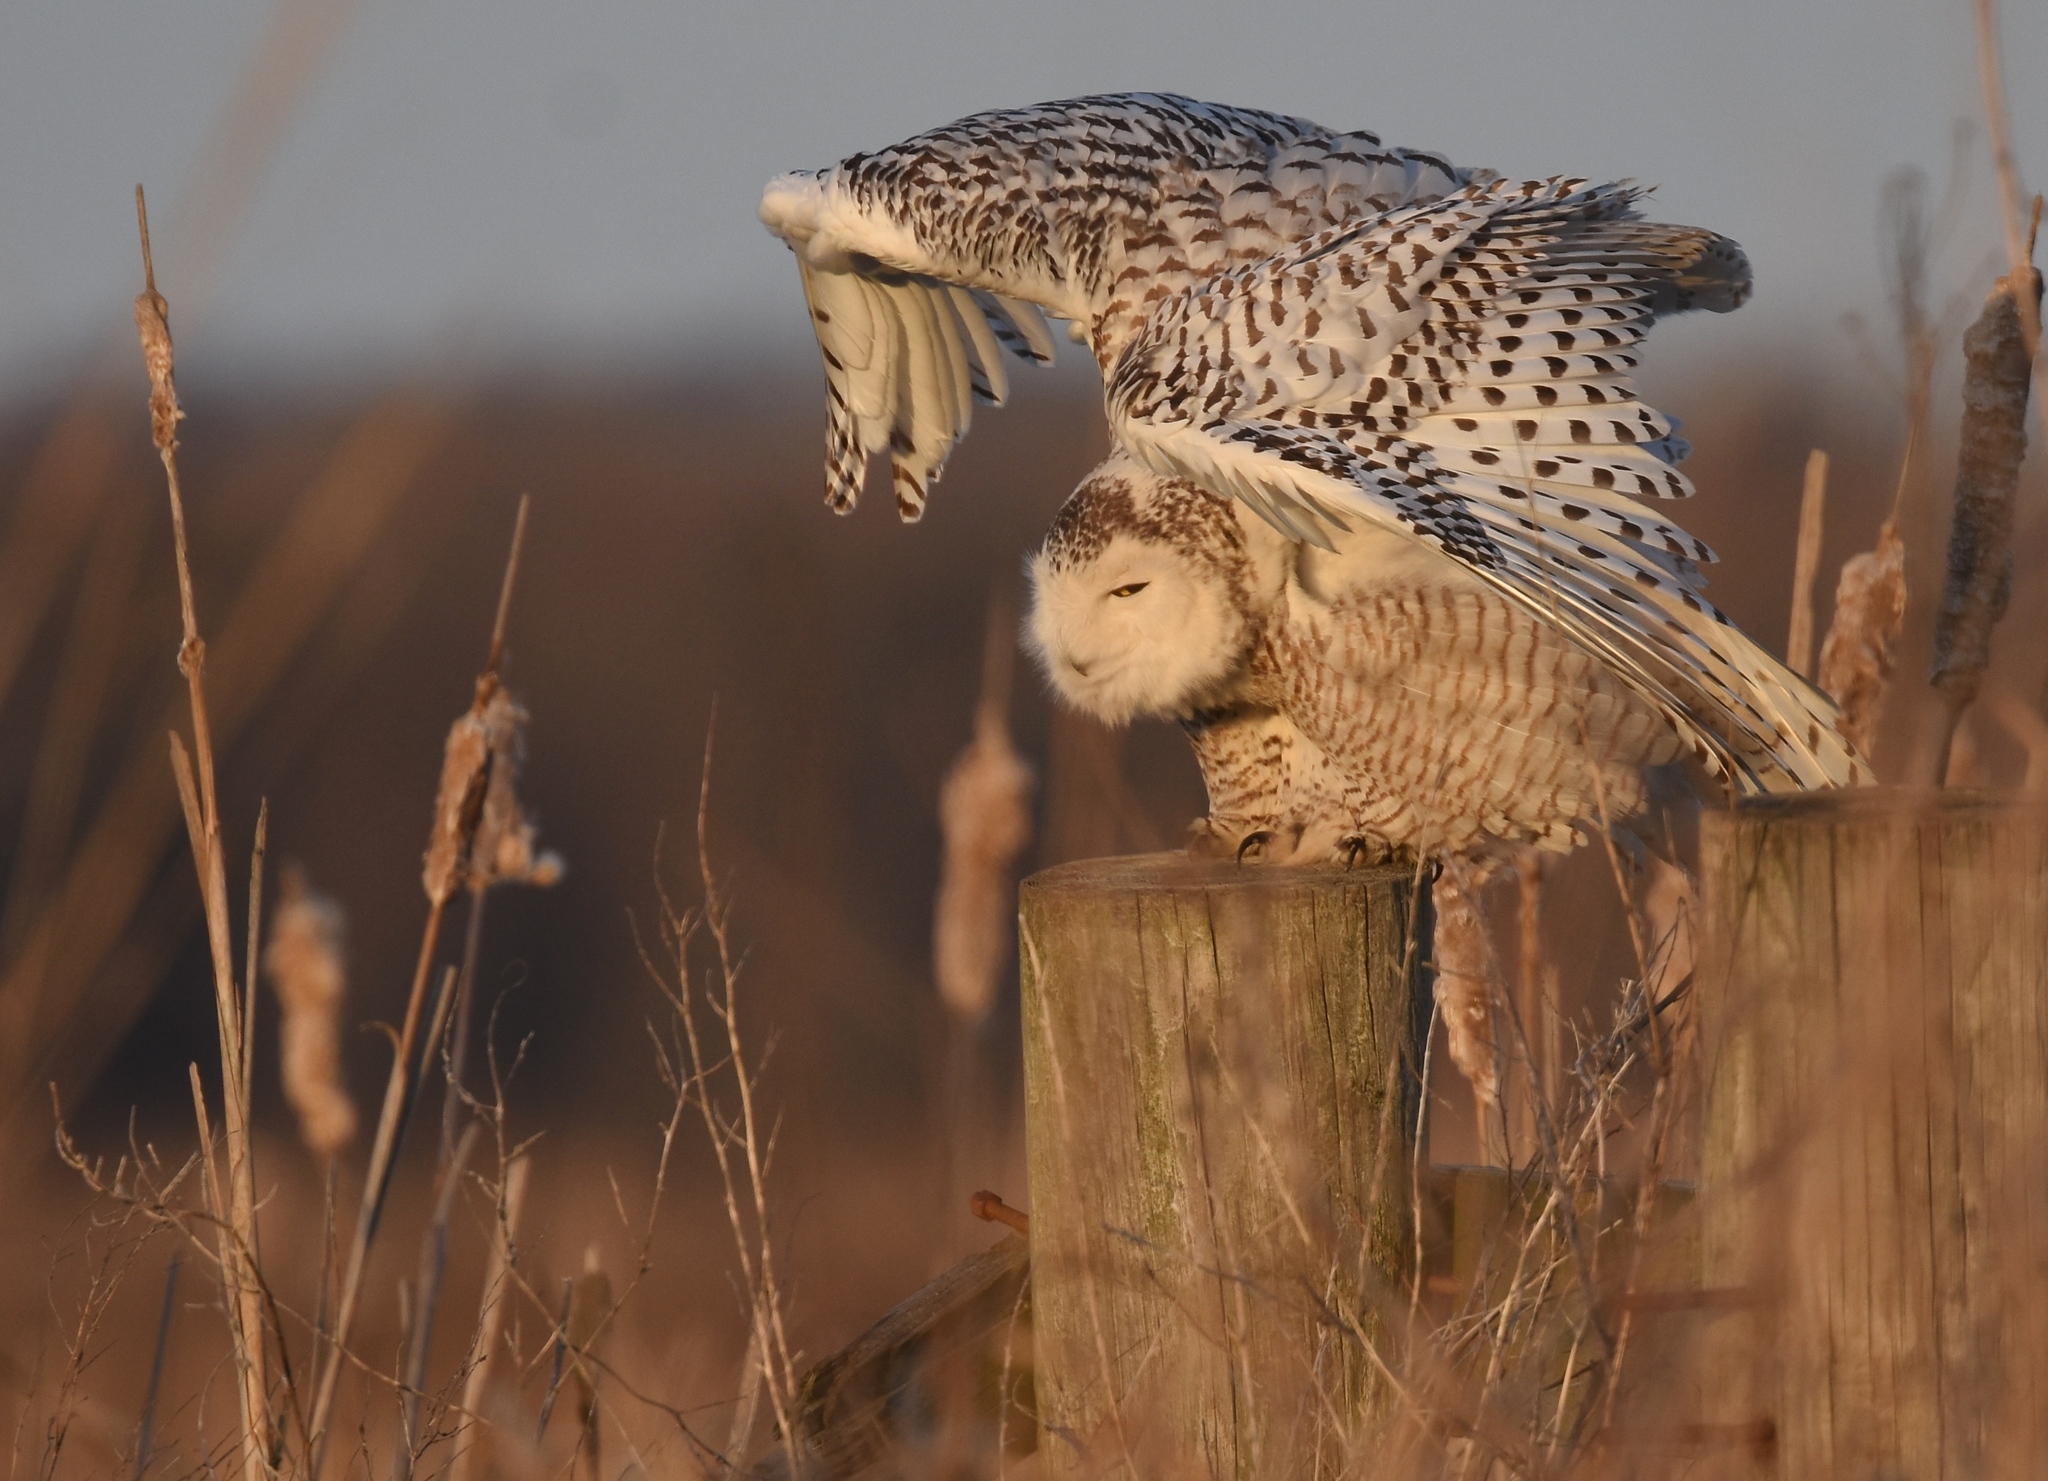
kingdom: Animalia
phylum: Chordata
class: Aves
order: Strigiformes
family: Strigidae
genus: Bubo
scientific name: Bubo scandiacus
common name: Snowy owl
